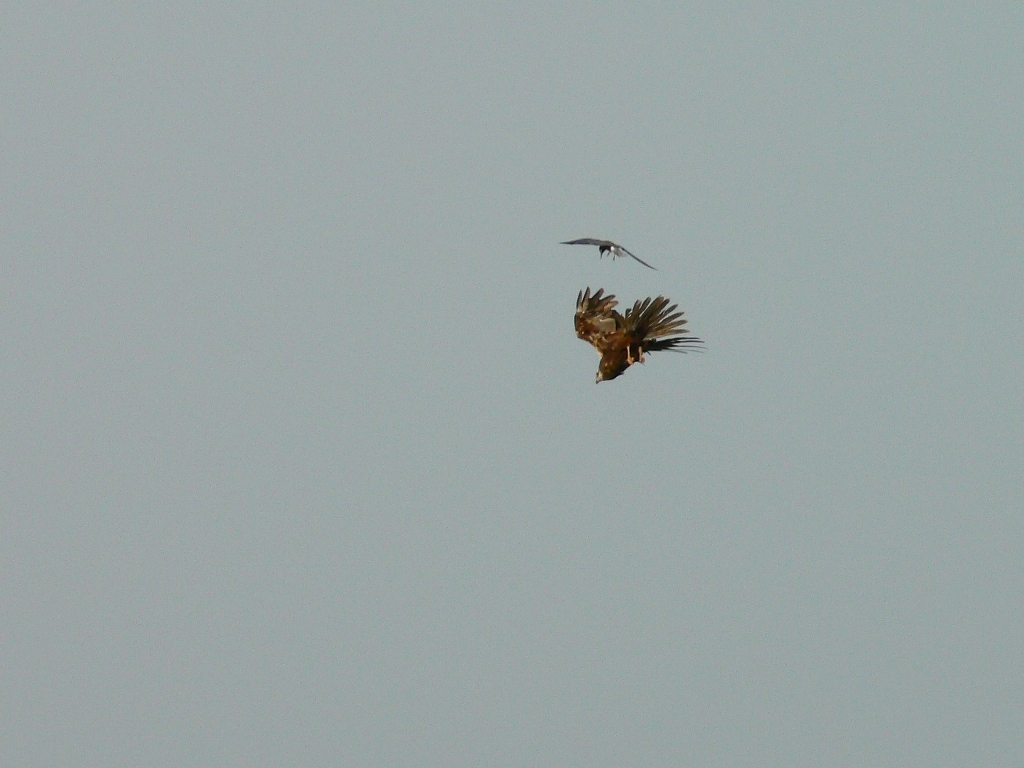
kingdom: Animalia
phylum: Chordata
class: Aves
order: Accipitriformes
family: Accipitridae
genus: Circus
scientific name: Circus aeruginosus
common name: Western marsh harrier
